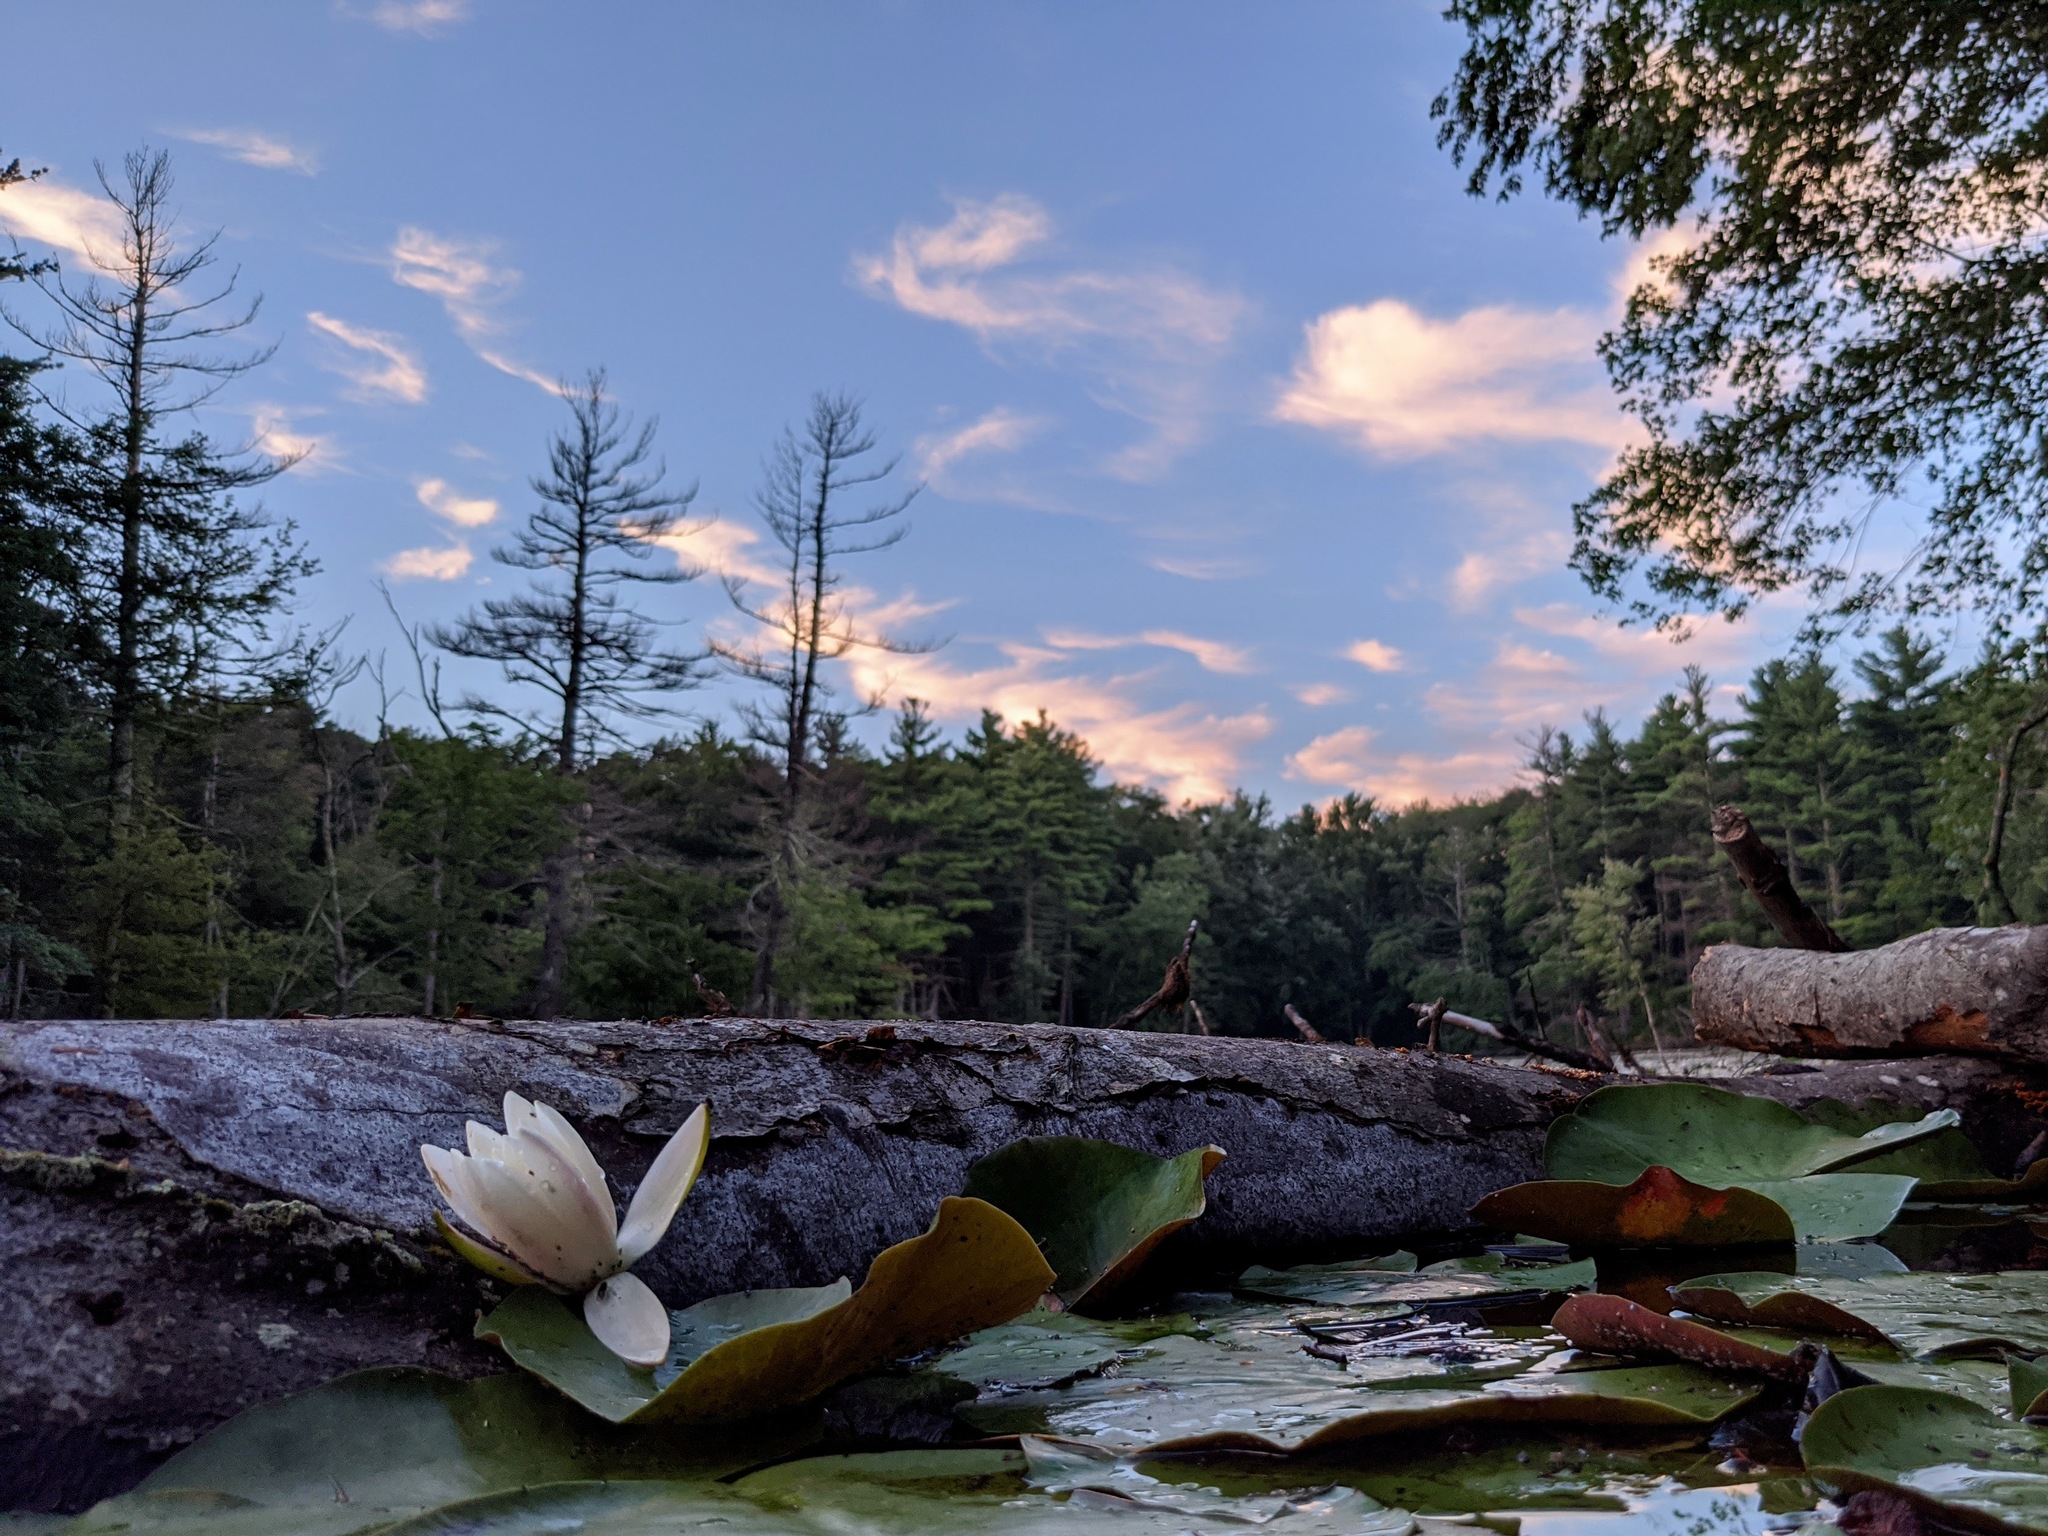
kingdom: Plantae
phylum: Tracheophyta
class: Magnoliopsida
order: Nymphaeales
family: Nymphaeaceae
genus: Nymphaea
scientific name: Nymphaea odorata
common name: Fragrant water-lily
